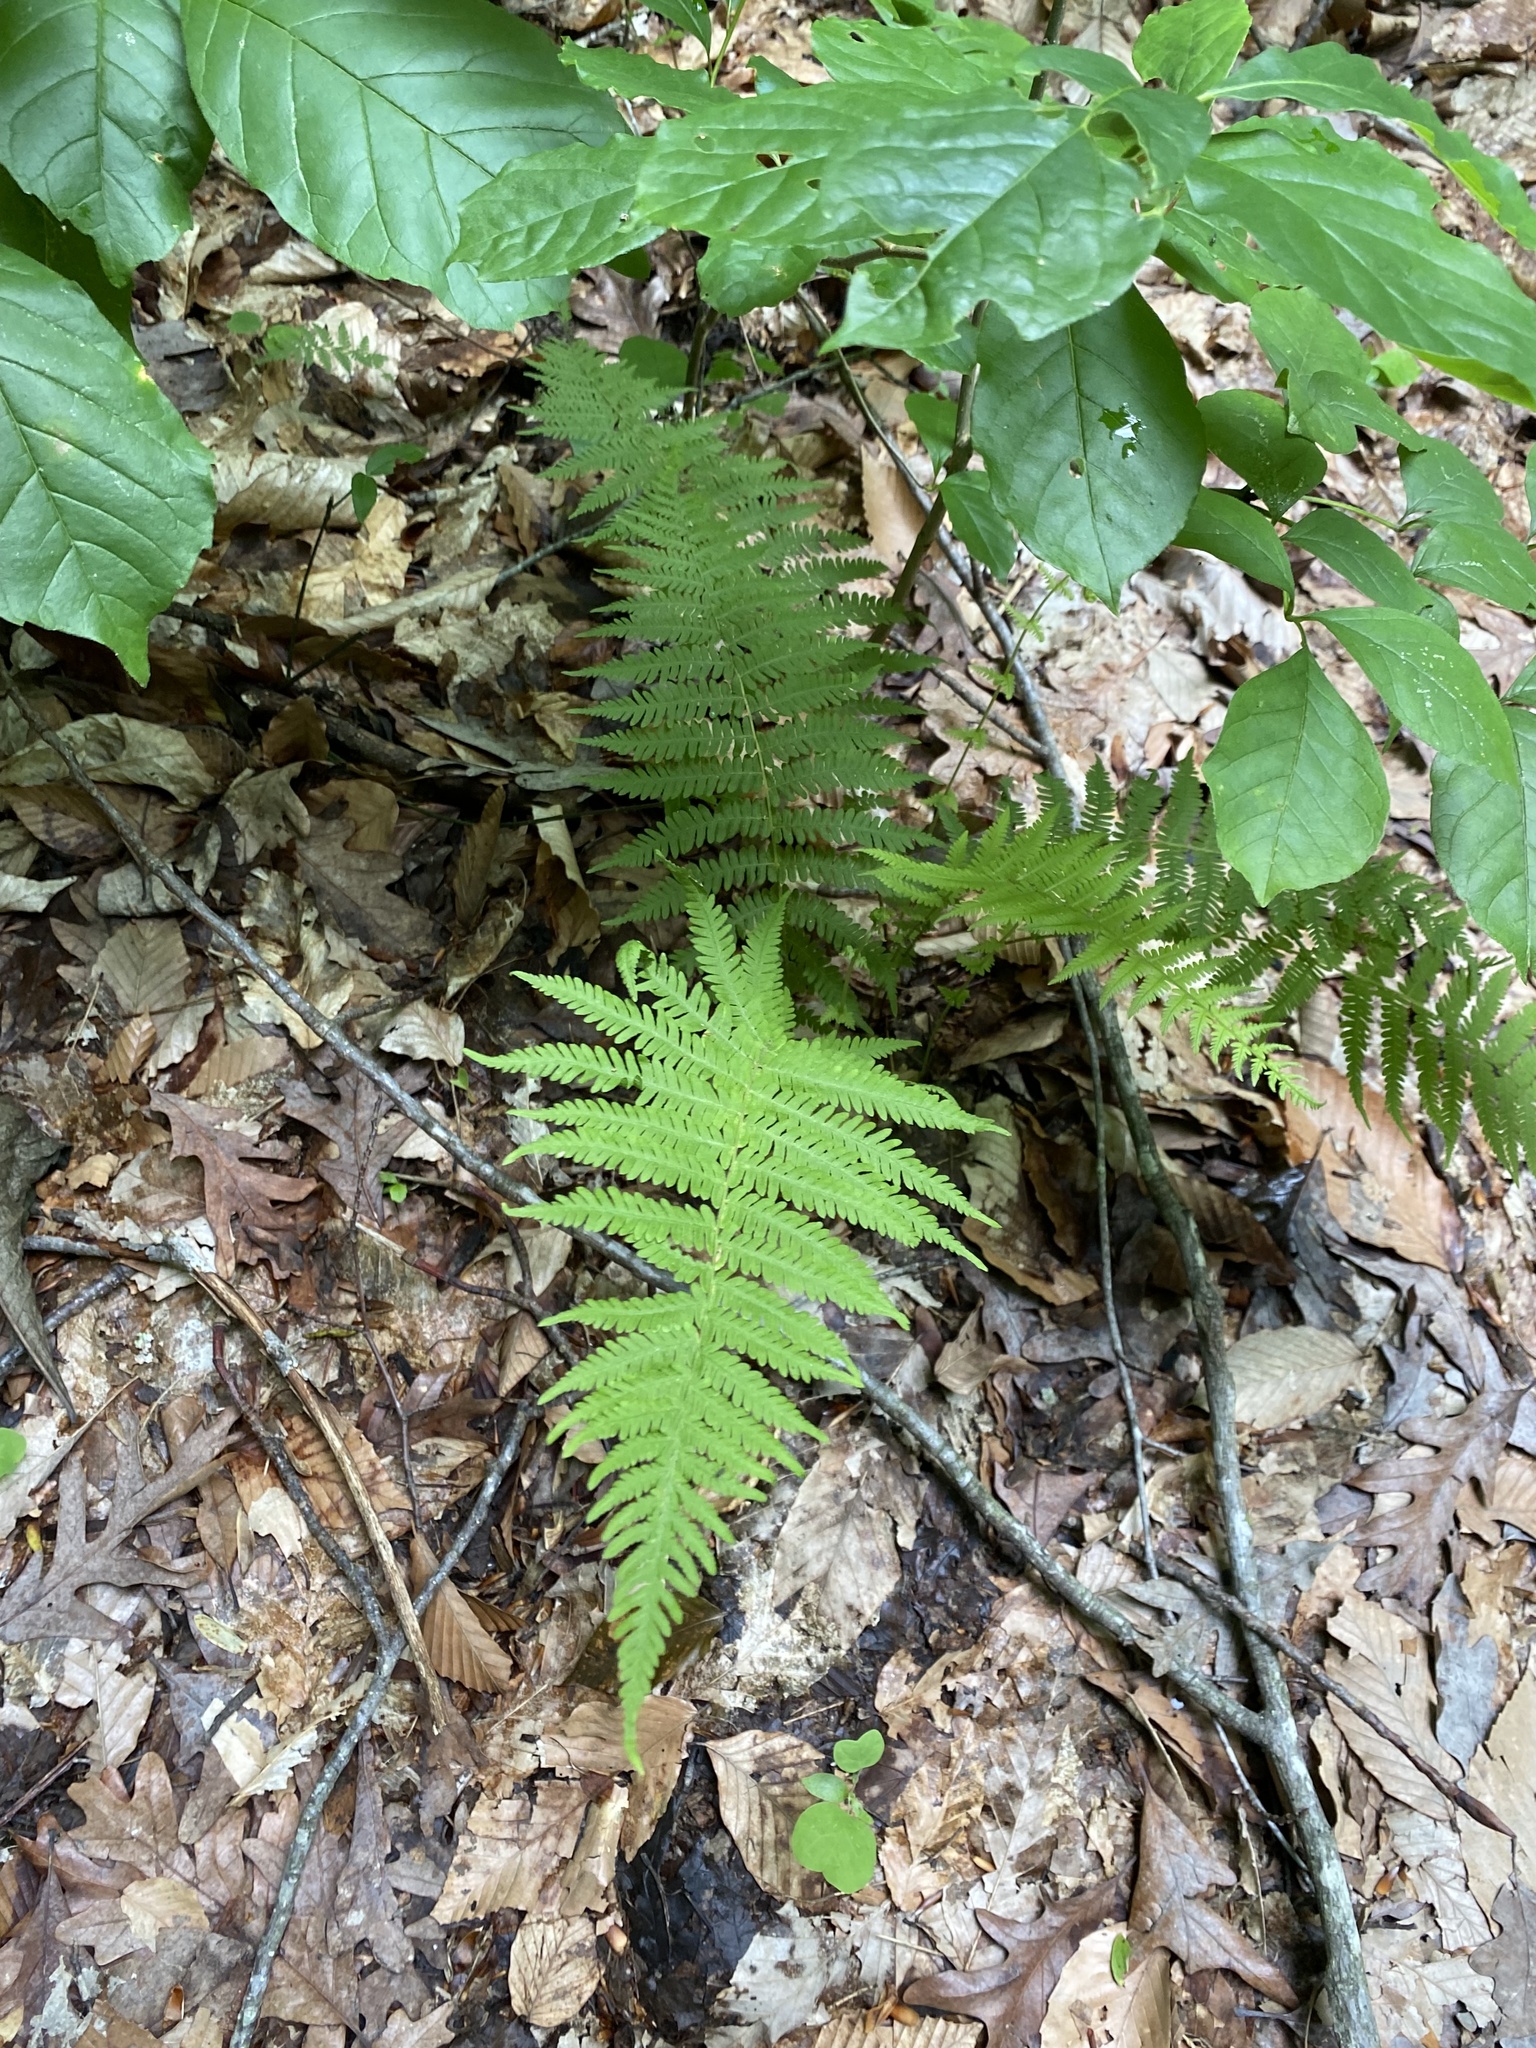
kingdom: Plantae
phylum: Tracheophyta
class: Polypodiopsida
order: Polypodiales
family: Thelypteridaceae
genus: Amauropelta
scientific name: Amauropelta noveboracensis
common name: New york fern
